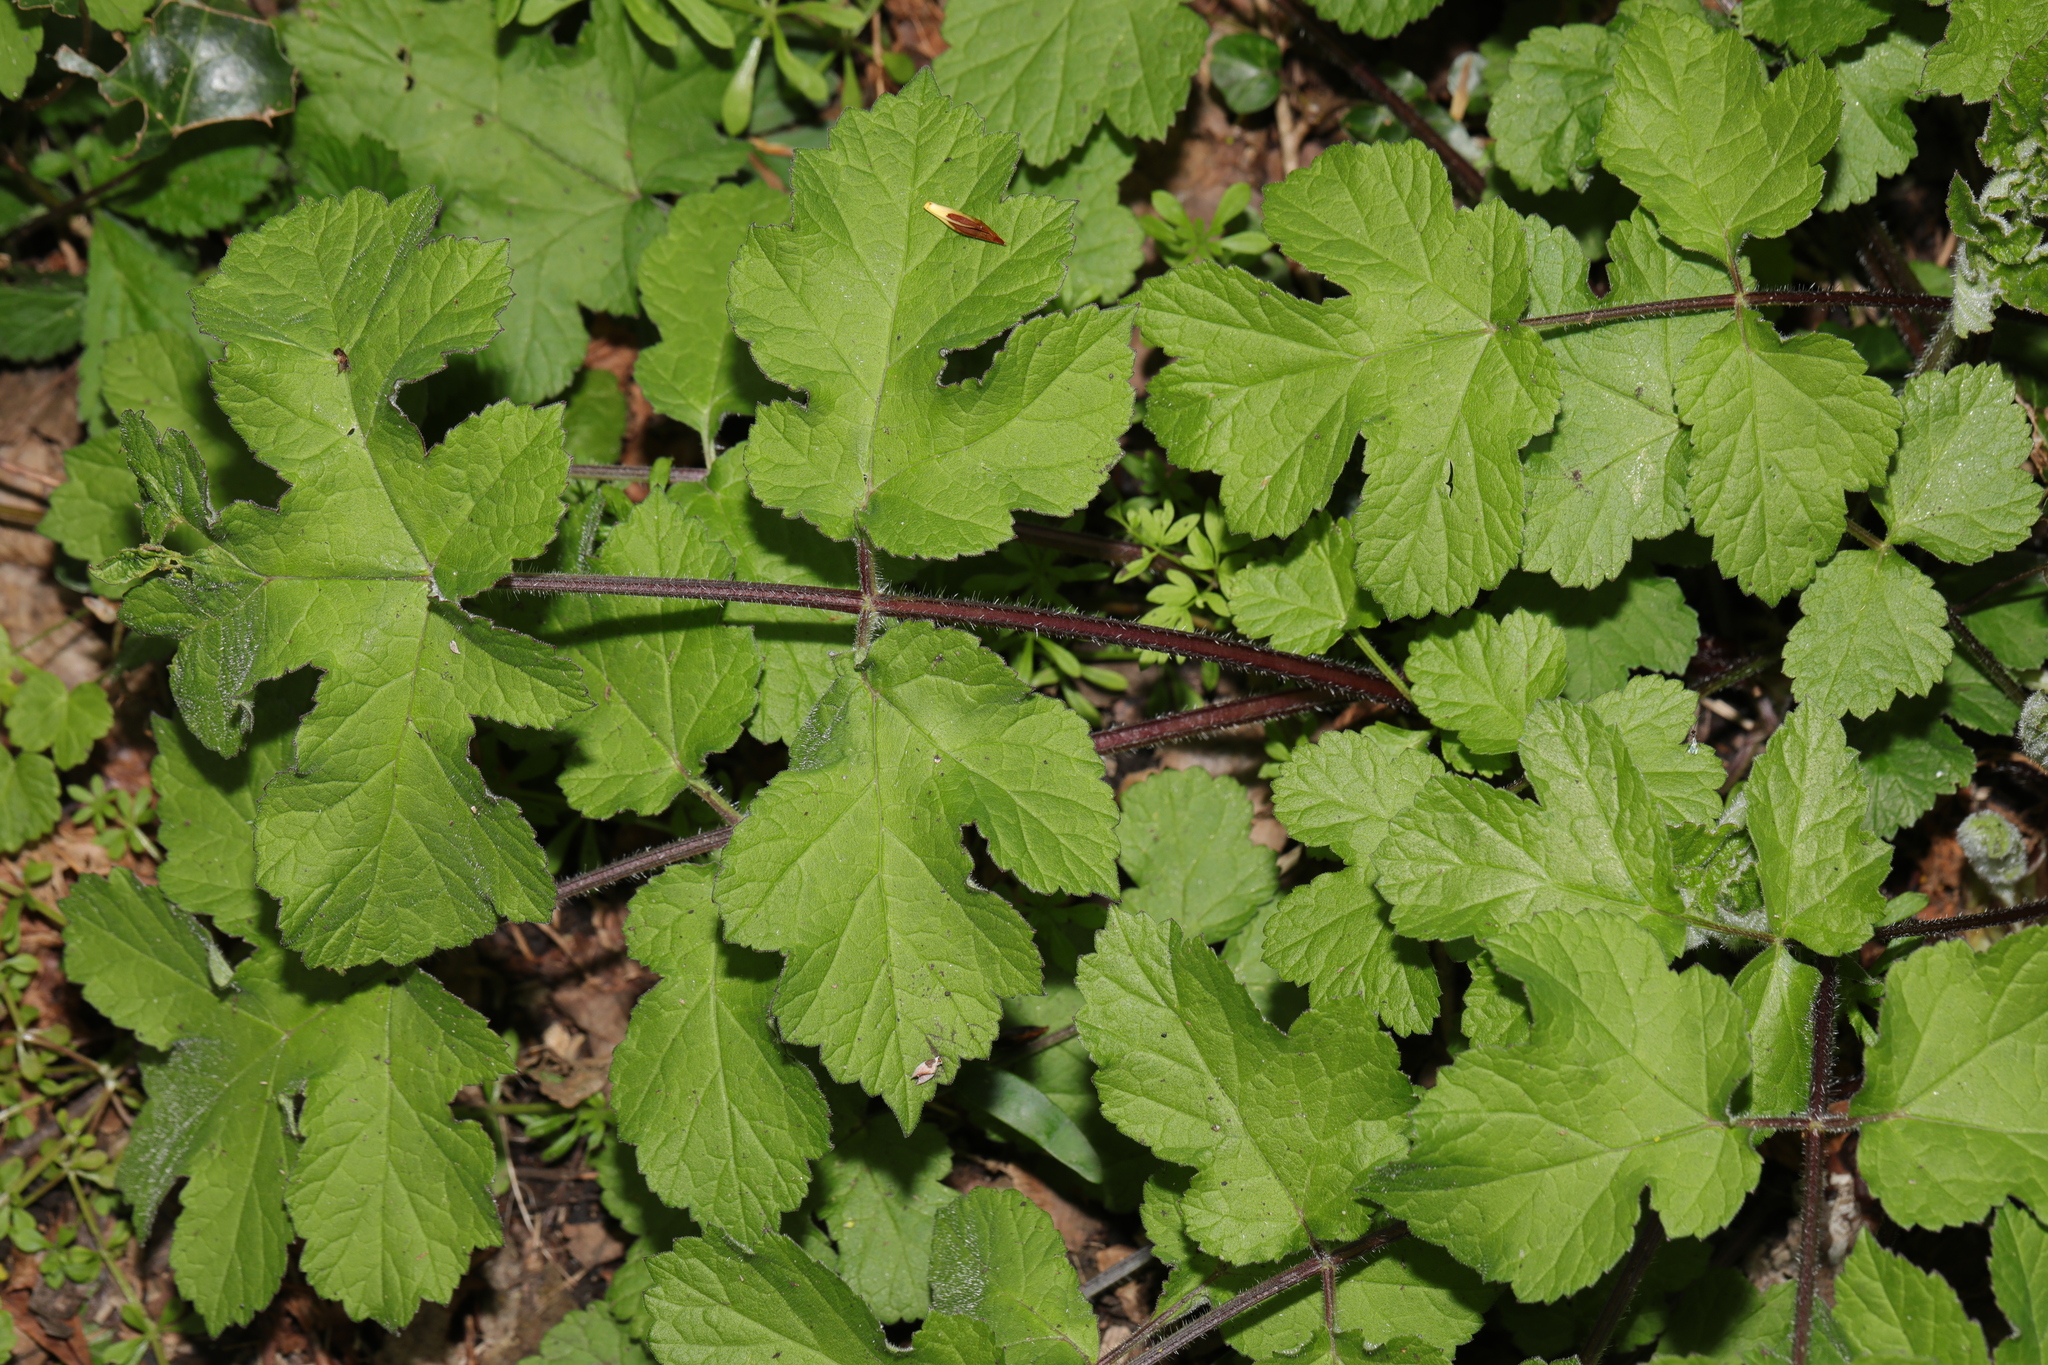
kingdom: Plantae
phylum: Tracheophyta
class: Magnoliopsida
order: Apiales
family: Apiaceae
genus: Heracleum
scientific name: Heracleum sphondylium
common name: Hogweed
